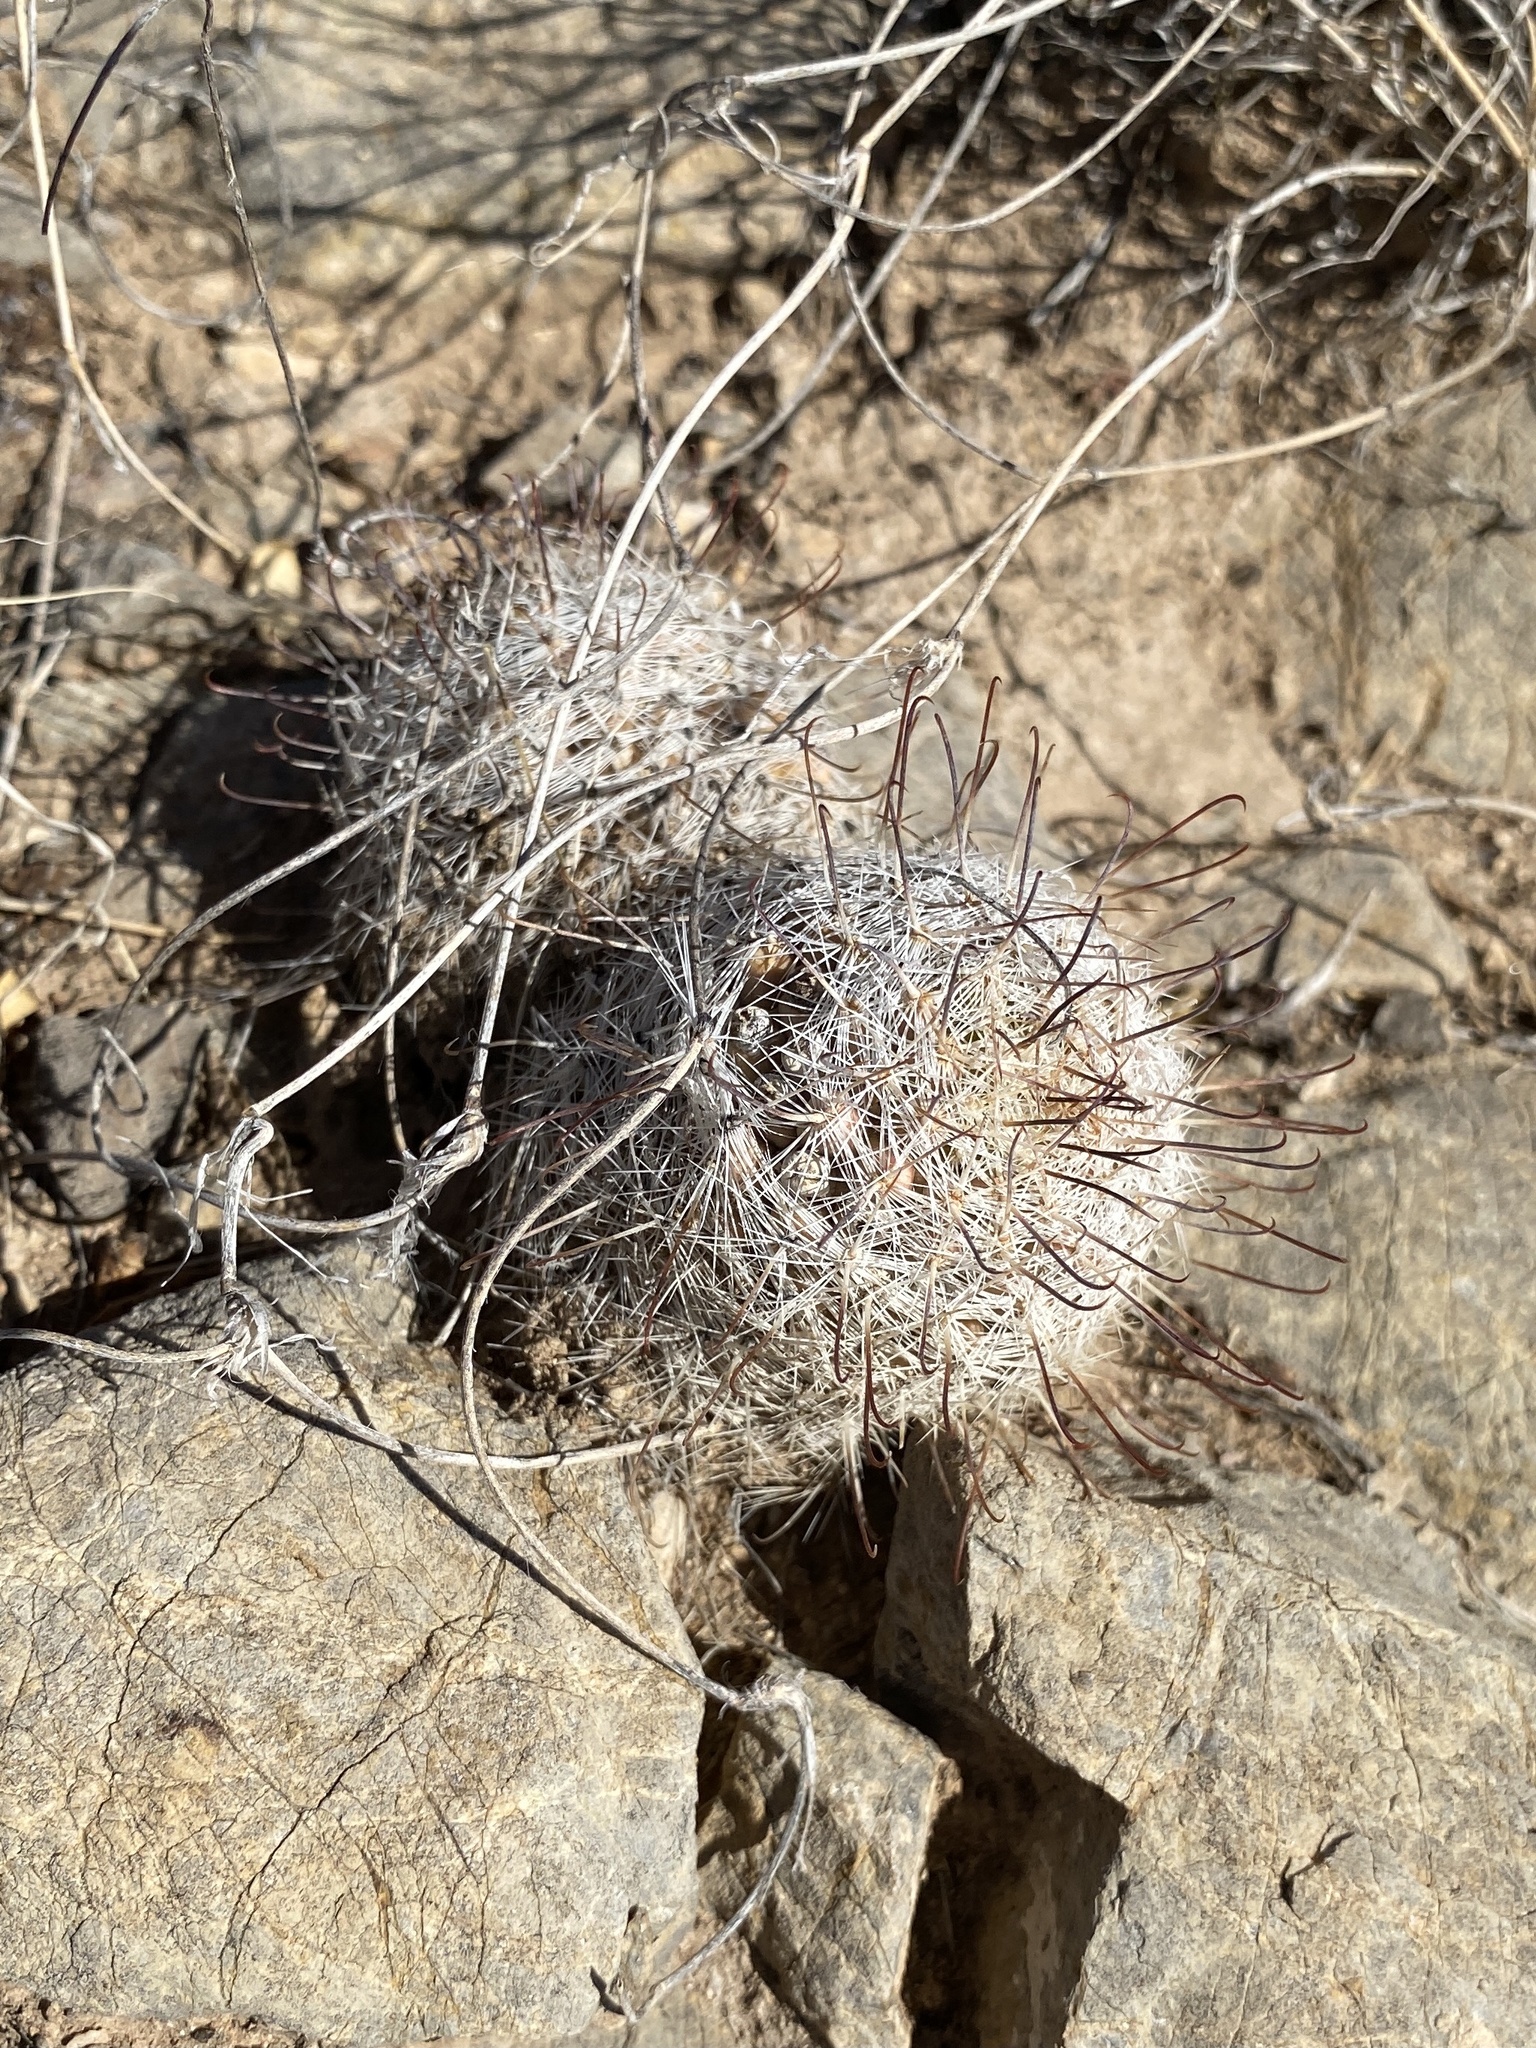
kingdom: Plantae
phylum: Tracheophyta
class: Magnoliopsida
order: Caryophyllales
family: Cactaceae
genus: Cochemiea
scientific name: Cochemiea grahamii
